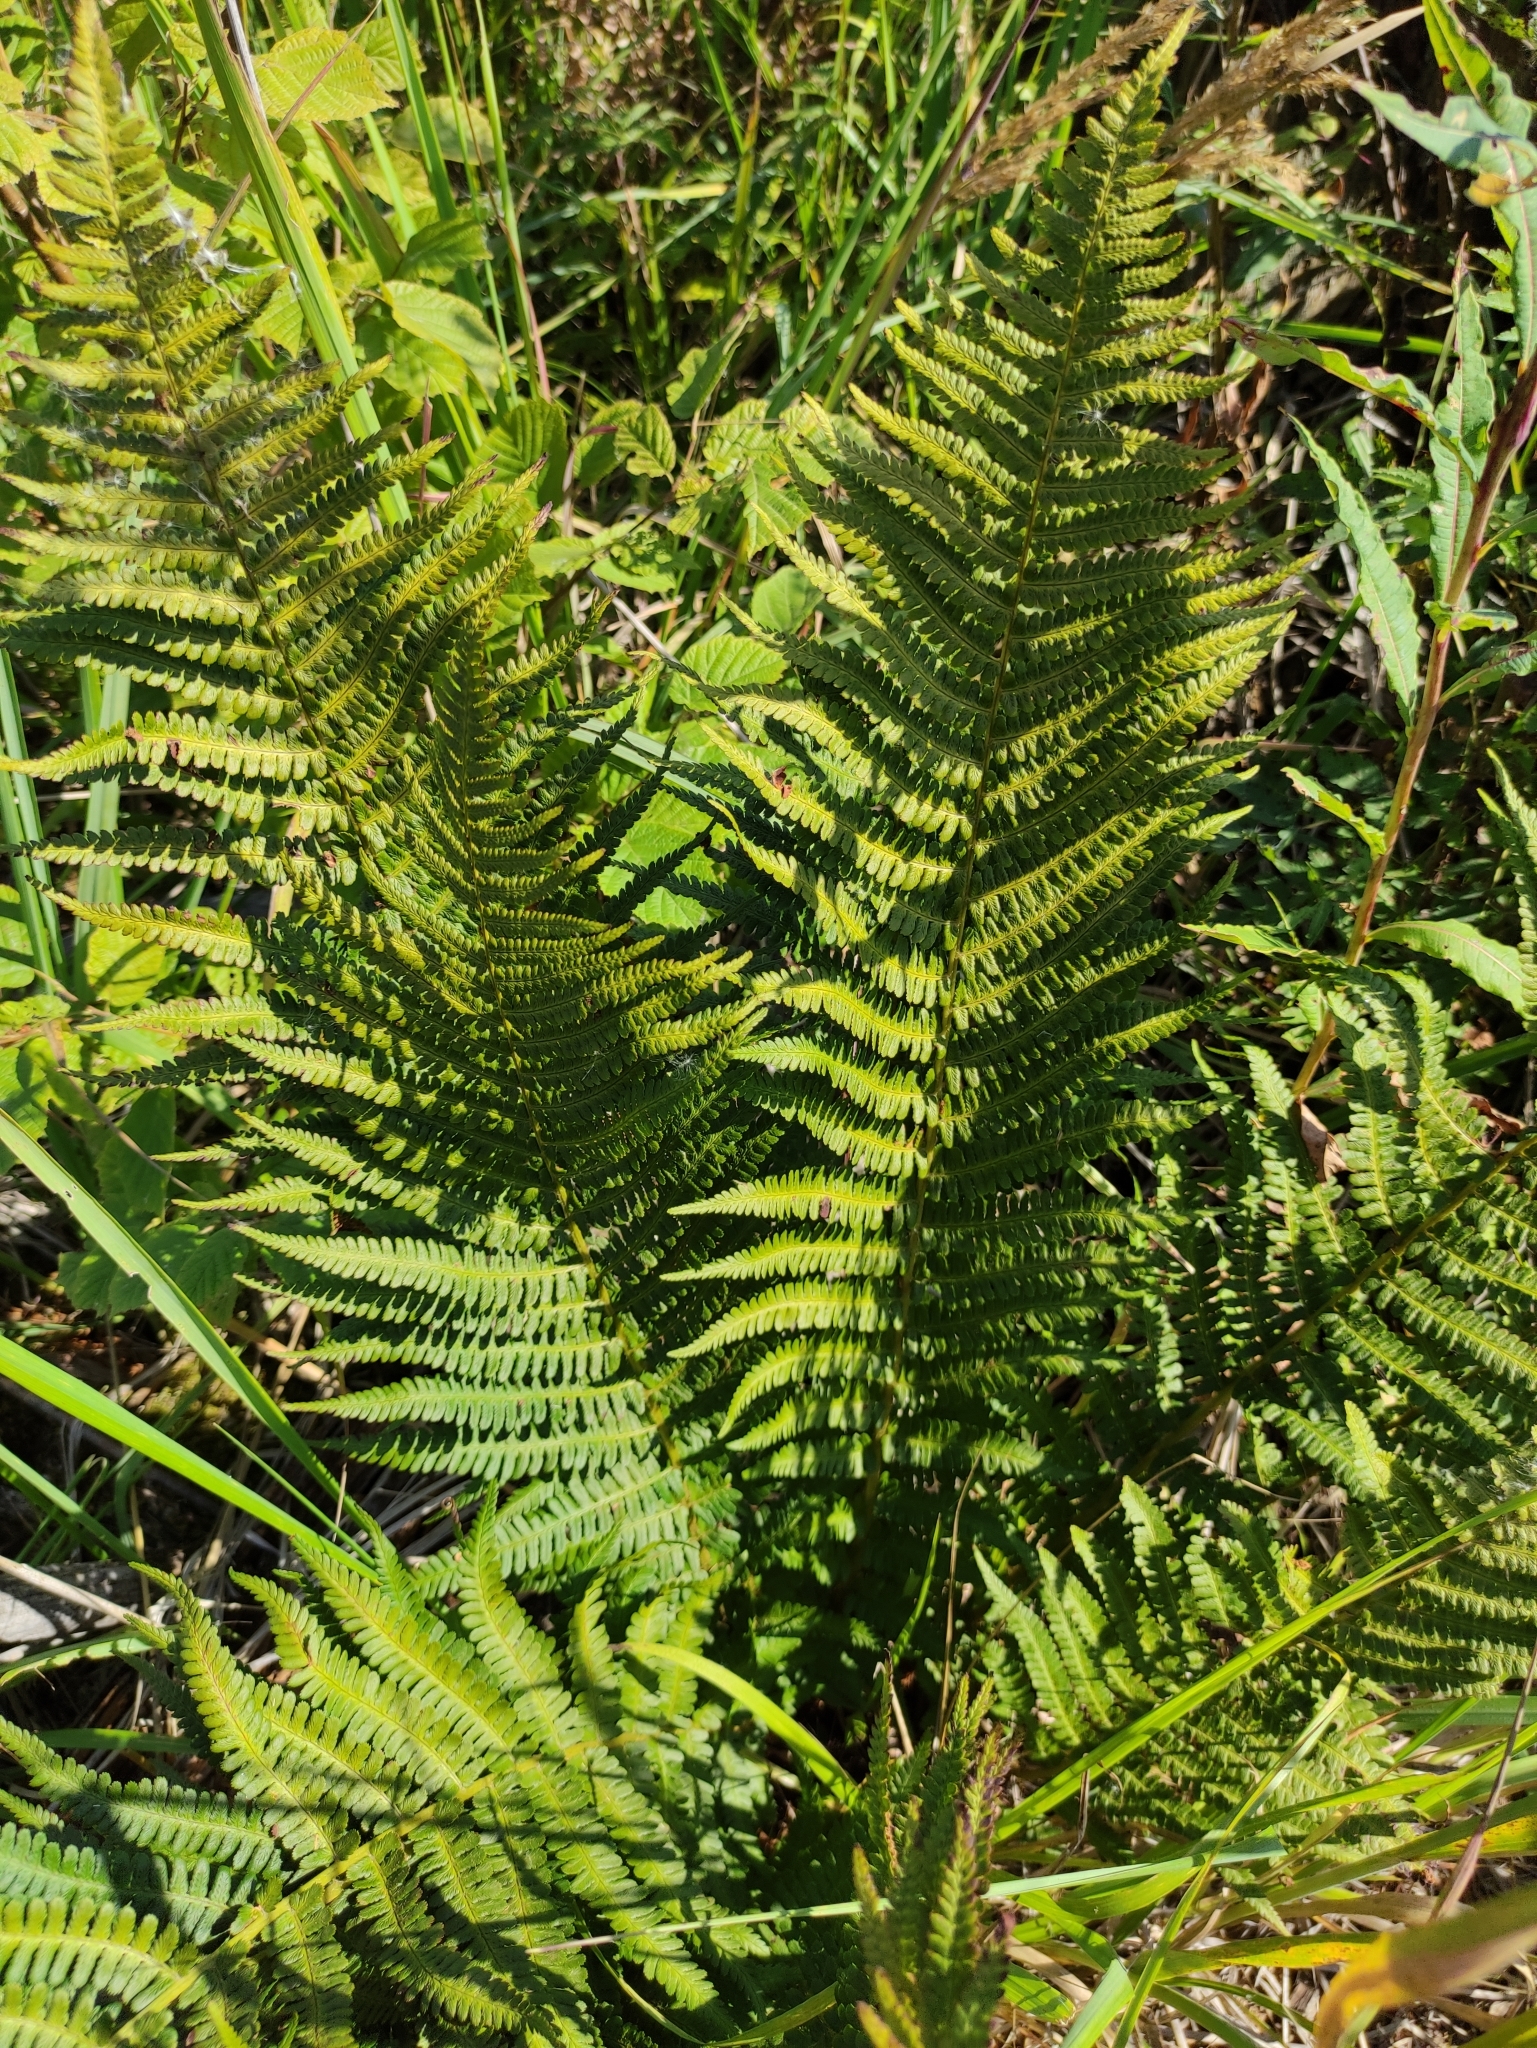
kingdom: Plantae
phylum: Tracheophyta
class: Polypodiopsida
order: Polypodiales
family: Dryopteridaceae
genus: Dryopteris
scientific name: Dryopteris filix-mas
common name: Male fern
